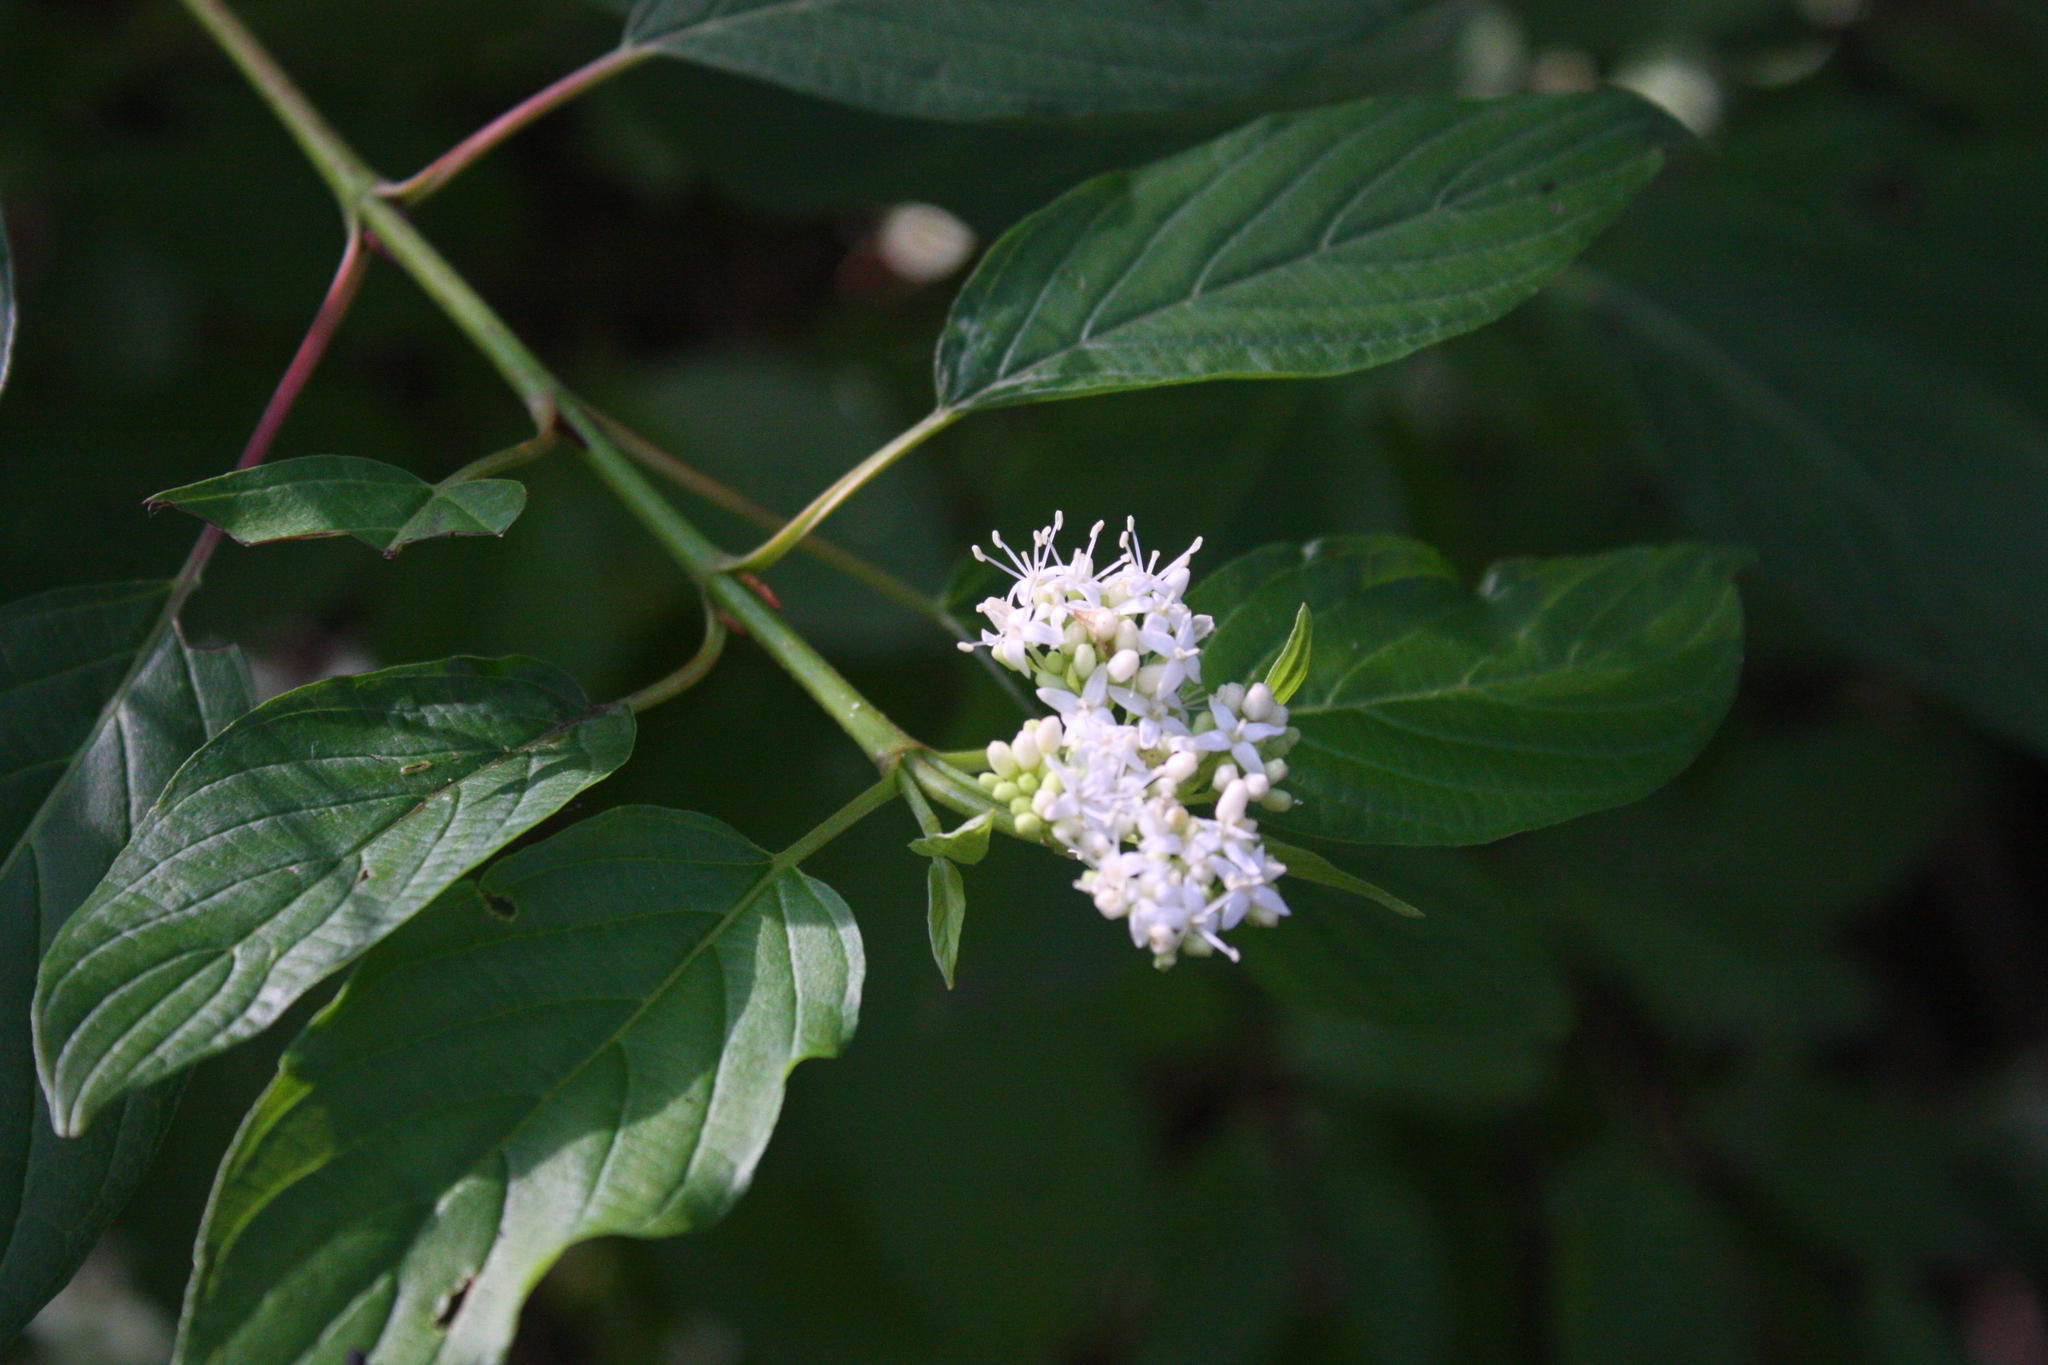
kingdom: Plantae
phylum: Tracheophyta
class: Magnoliopsida
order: Cornales
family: Cornaceae
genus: Cornus
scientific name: Cornus sericea
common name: Red-osier dogwood
